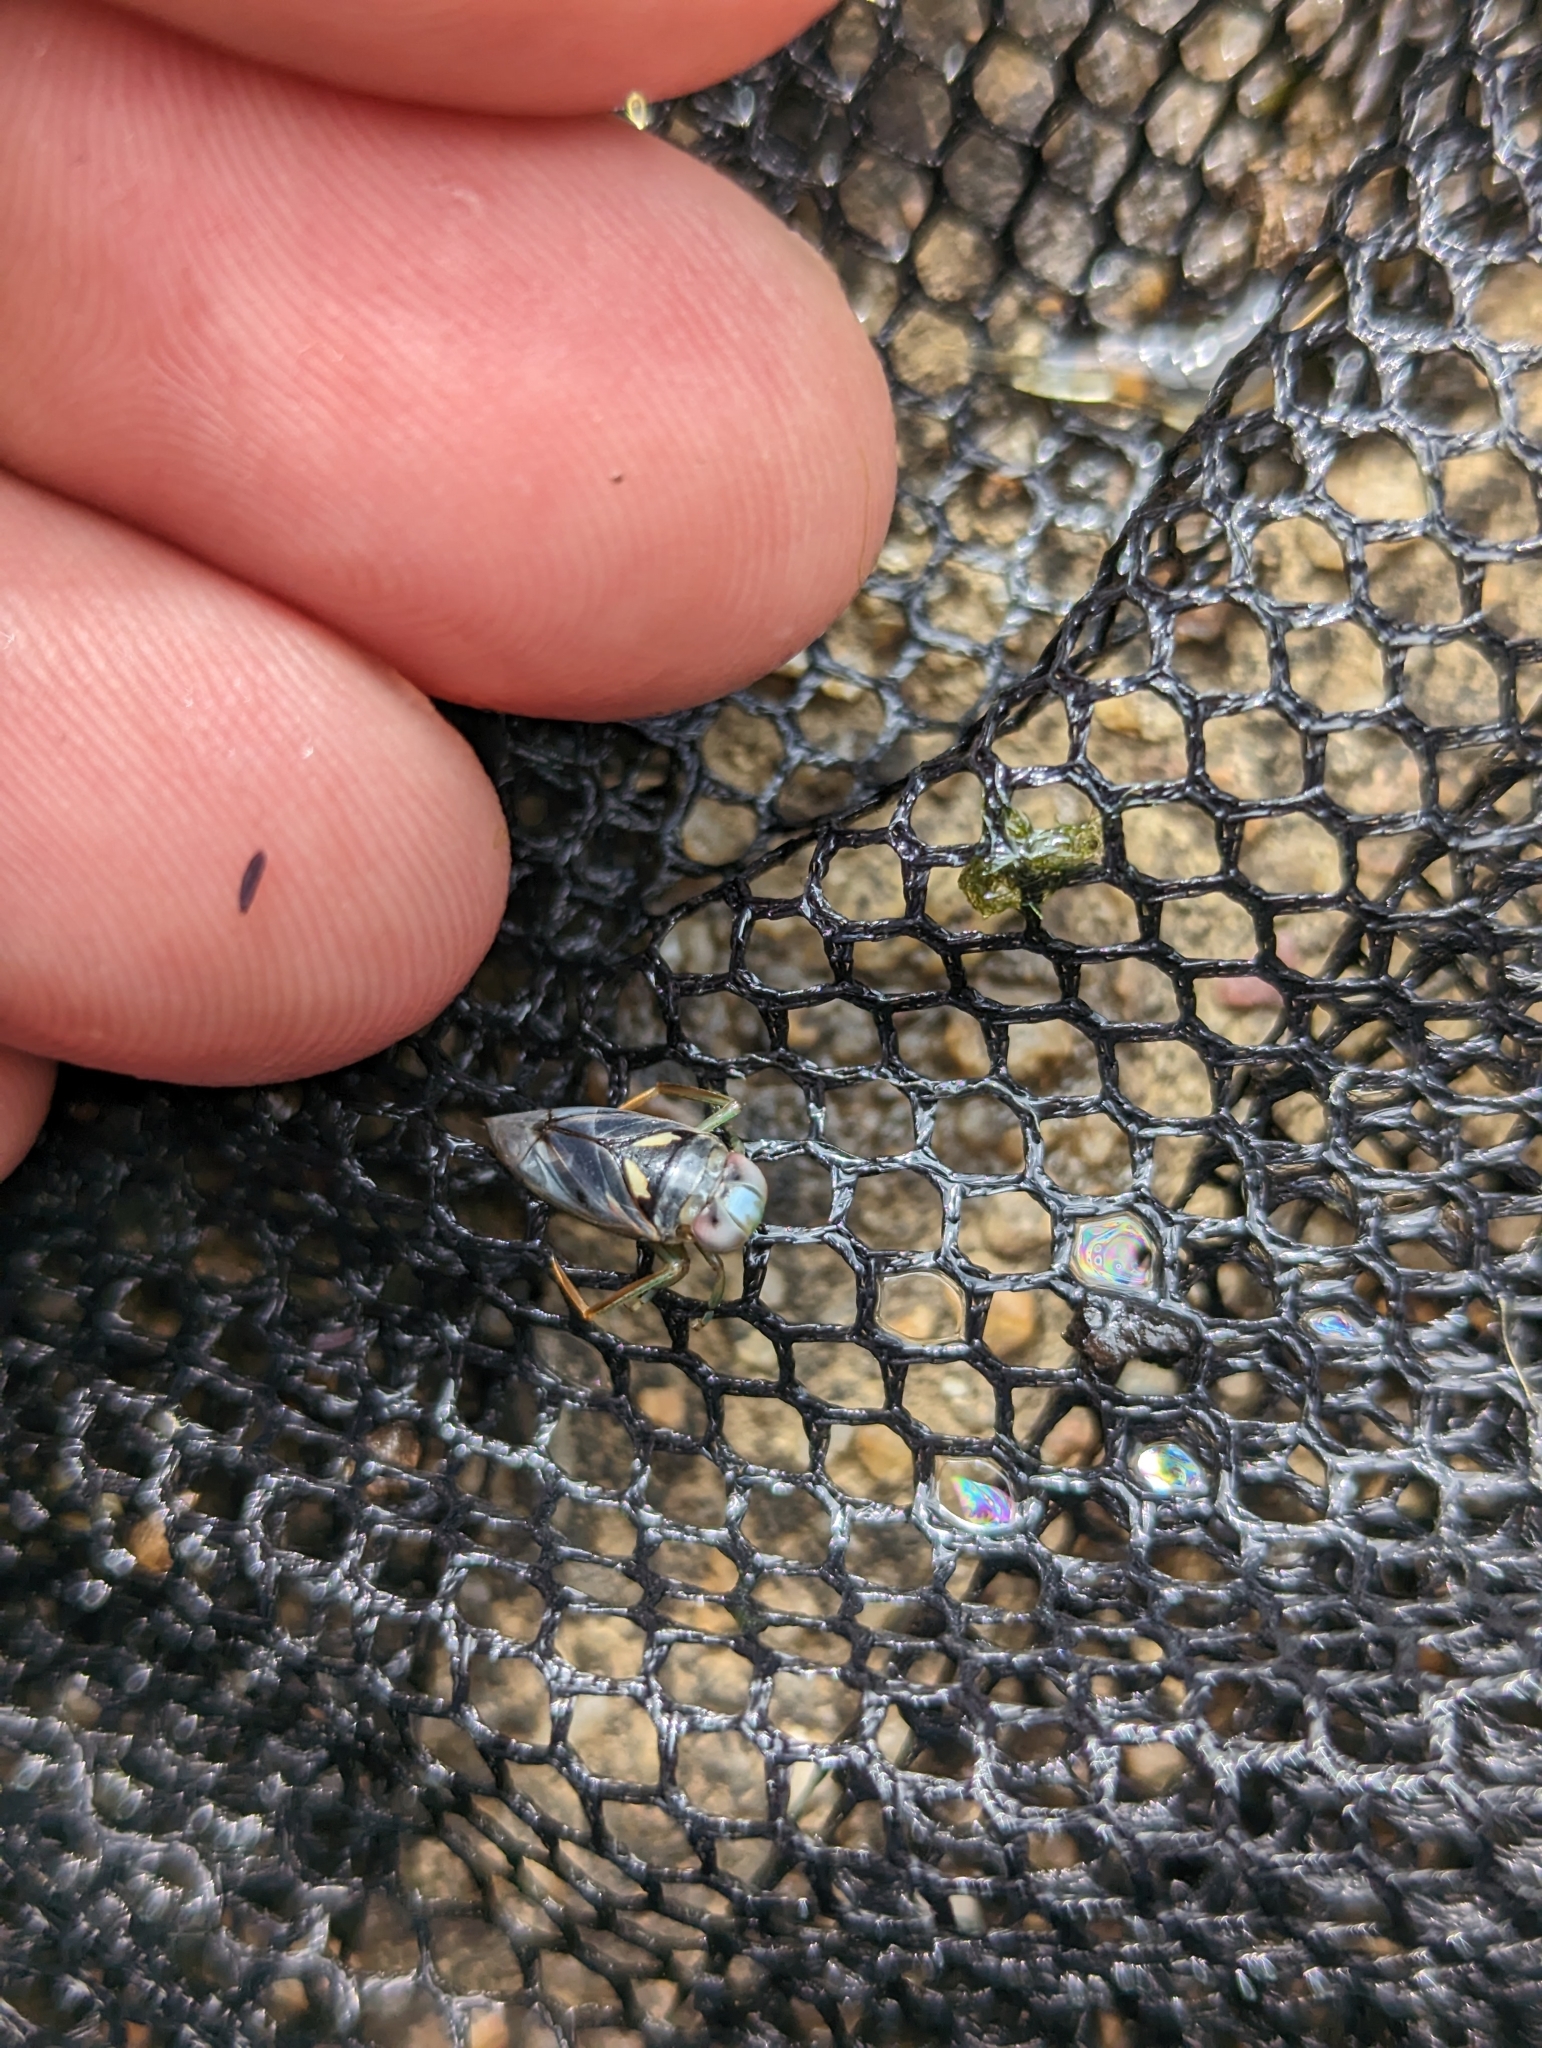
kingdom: Animalia
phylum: Arthropoda
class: Insecta
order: Hemiptera
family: Notonectidae
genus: Enithares
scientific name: Enithares
